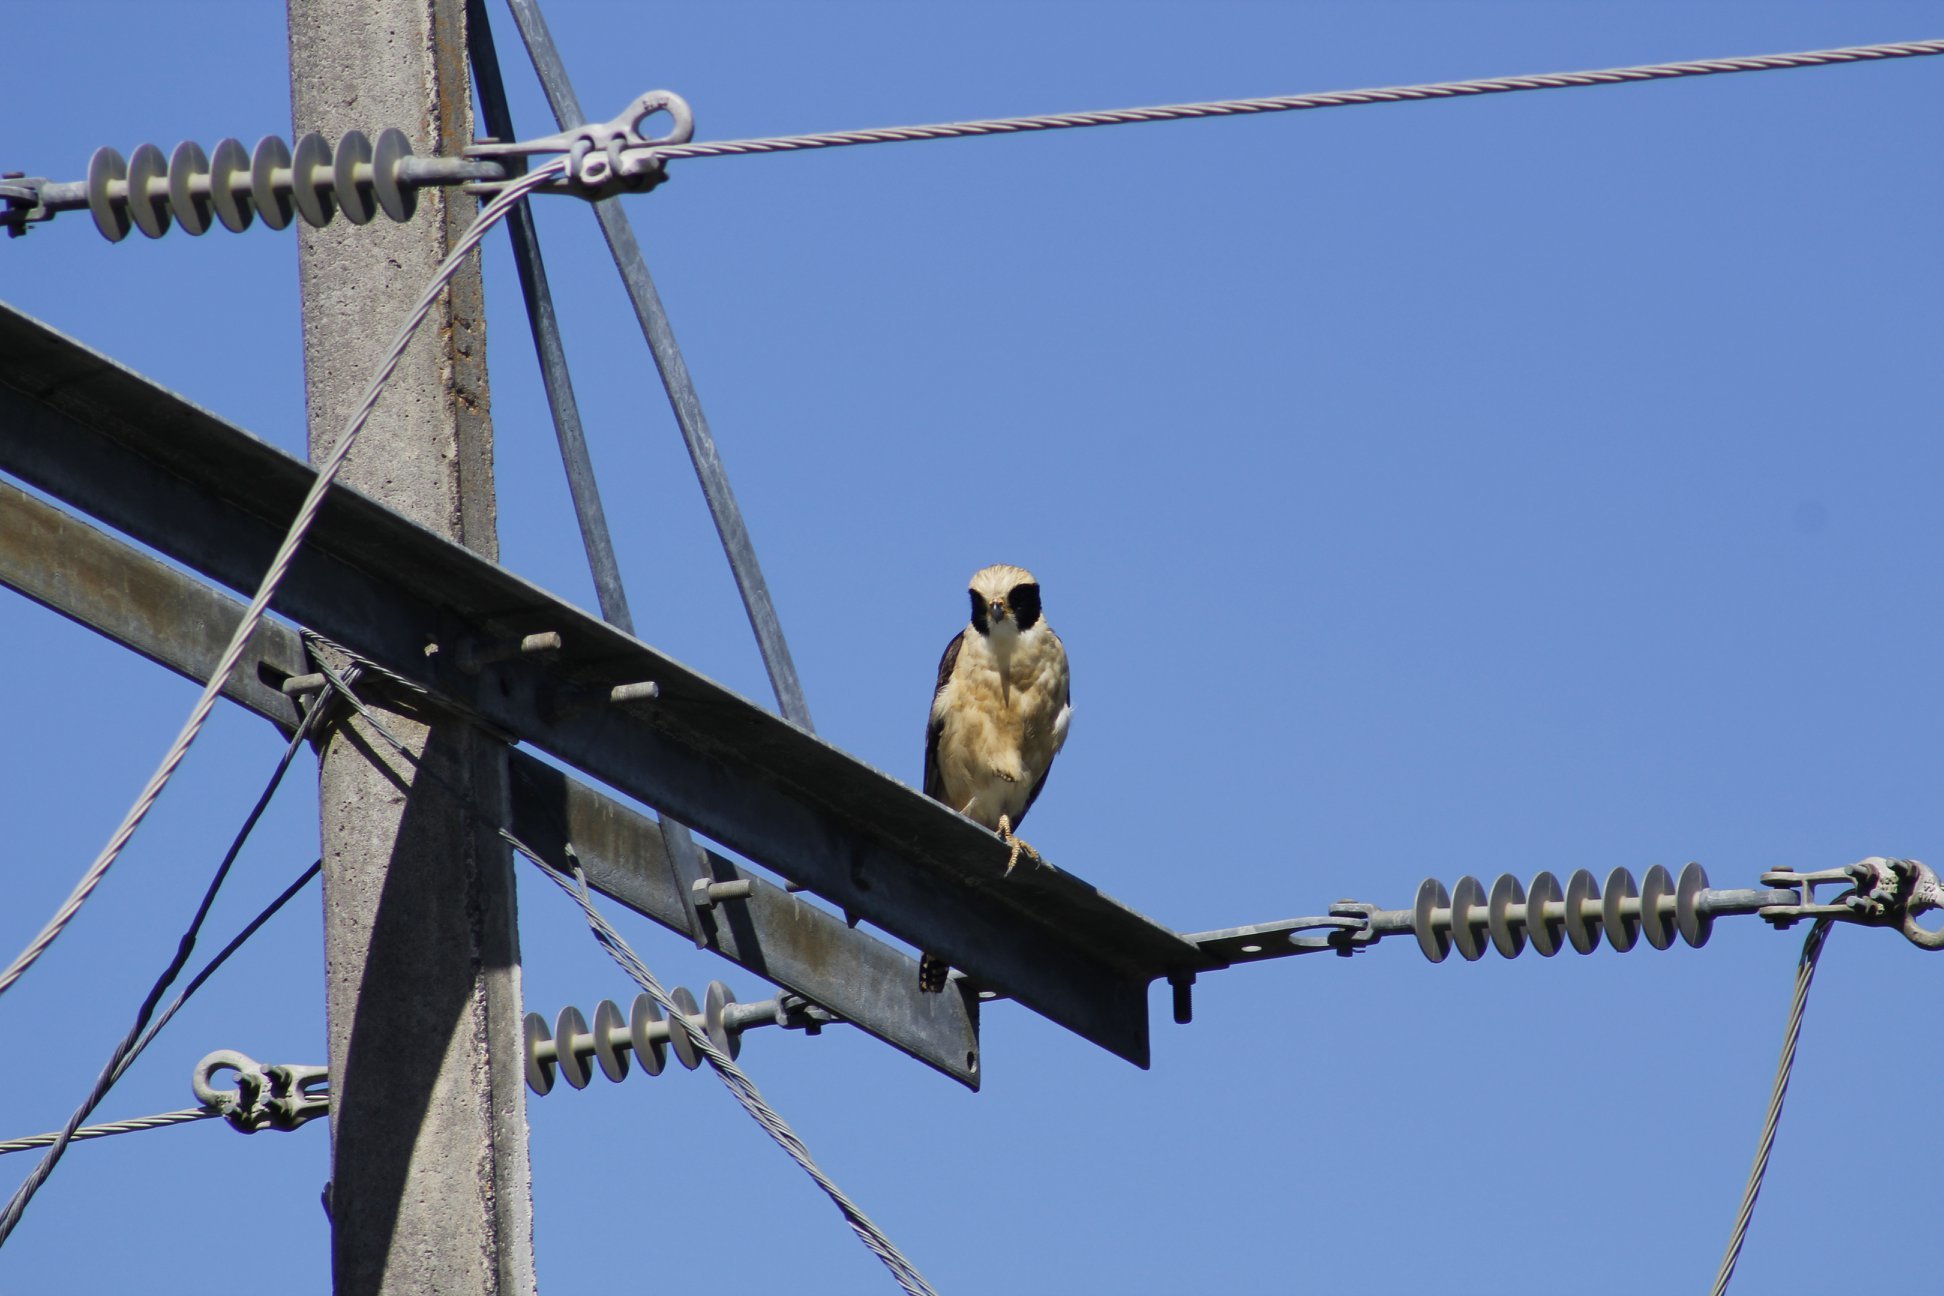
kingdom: Animalia
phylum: Chordata
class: Aves
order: Falconiformes
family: Falconidae
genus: Herpetotheres
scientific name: Herpetotheres cachinnans
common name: Laughing falcon
